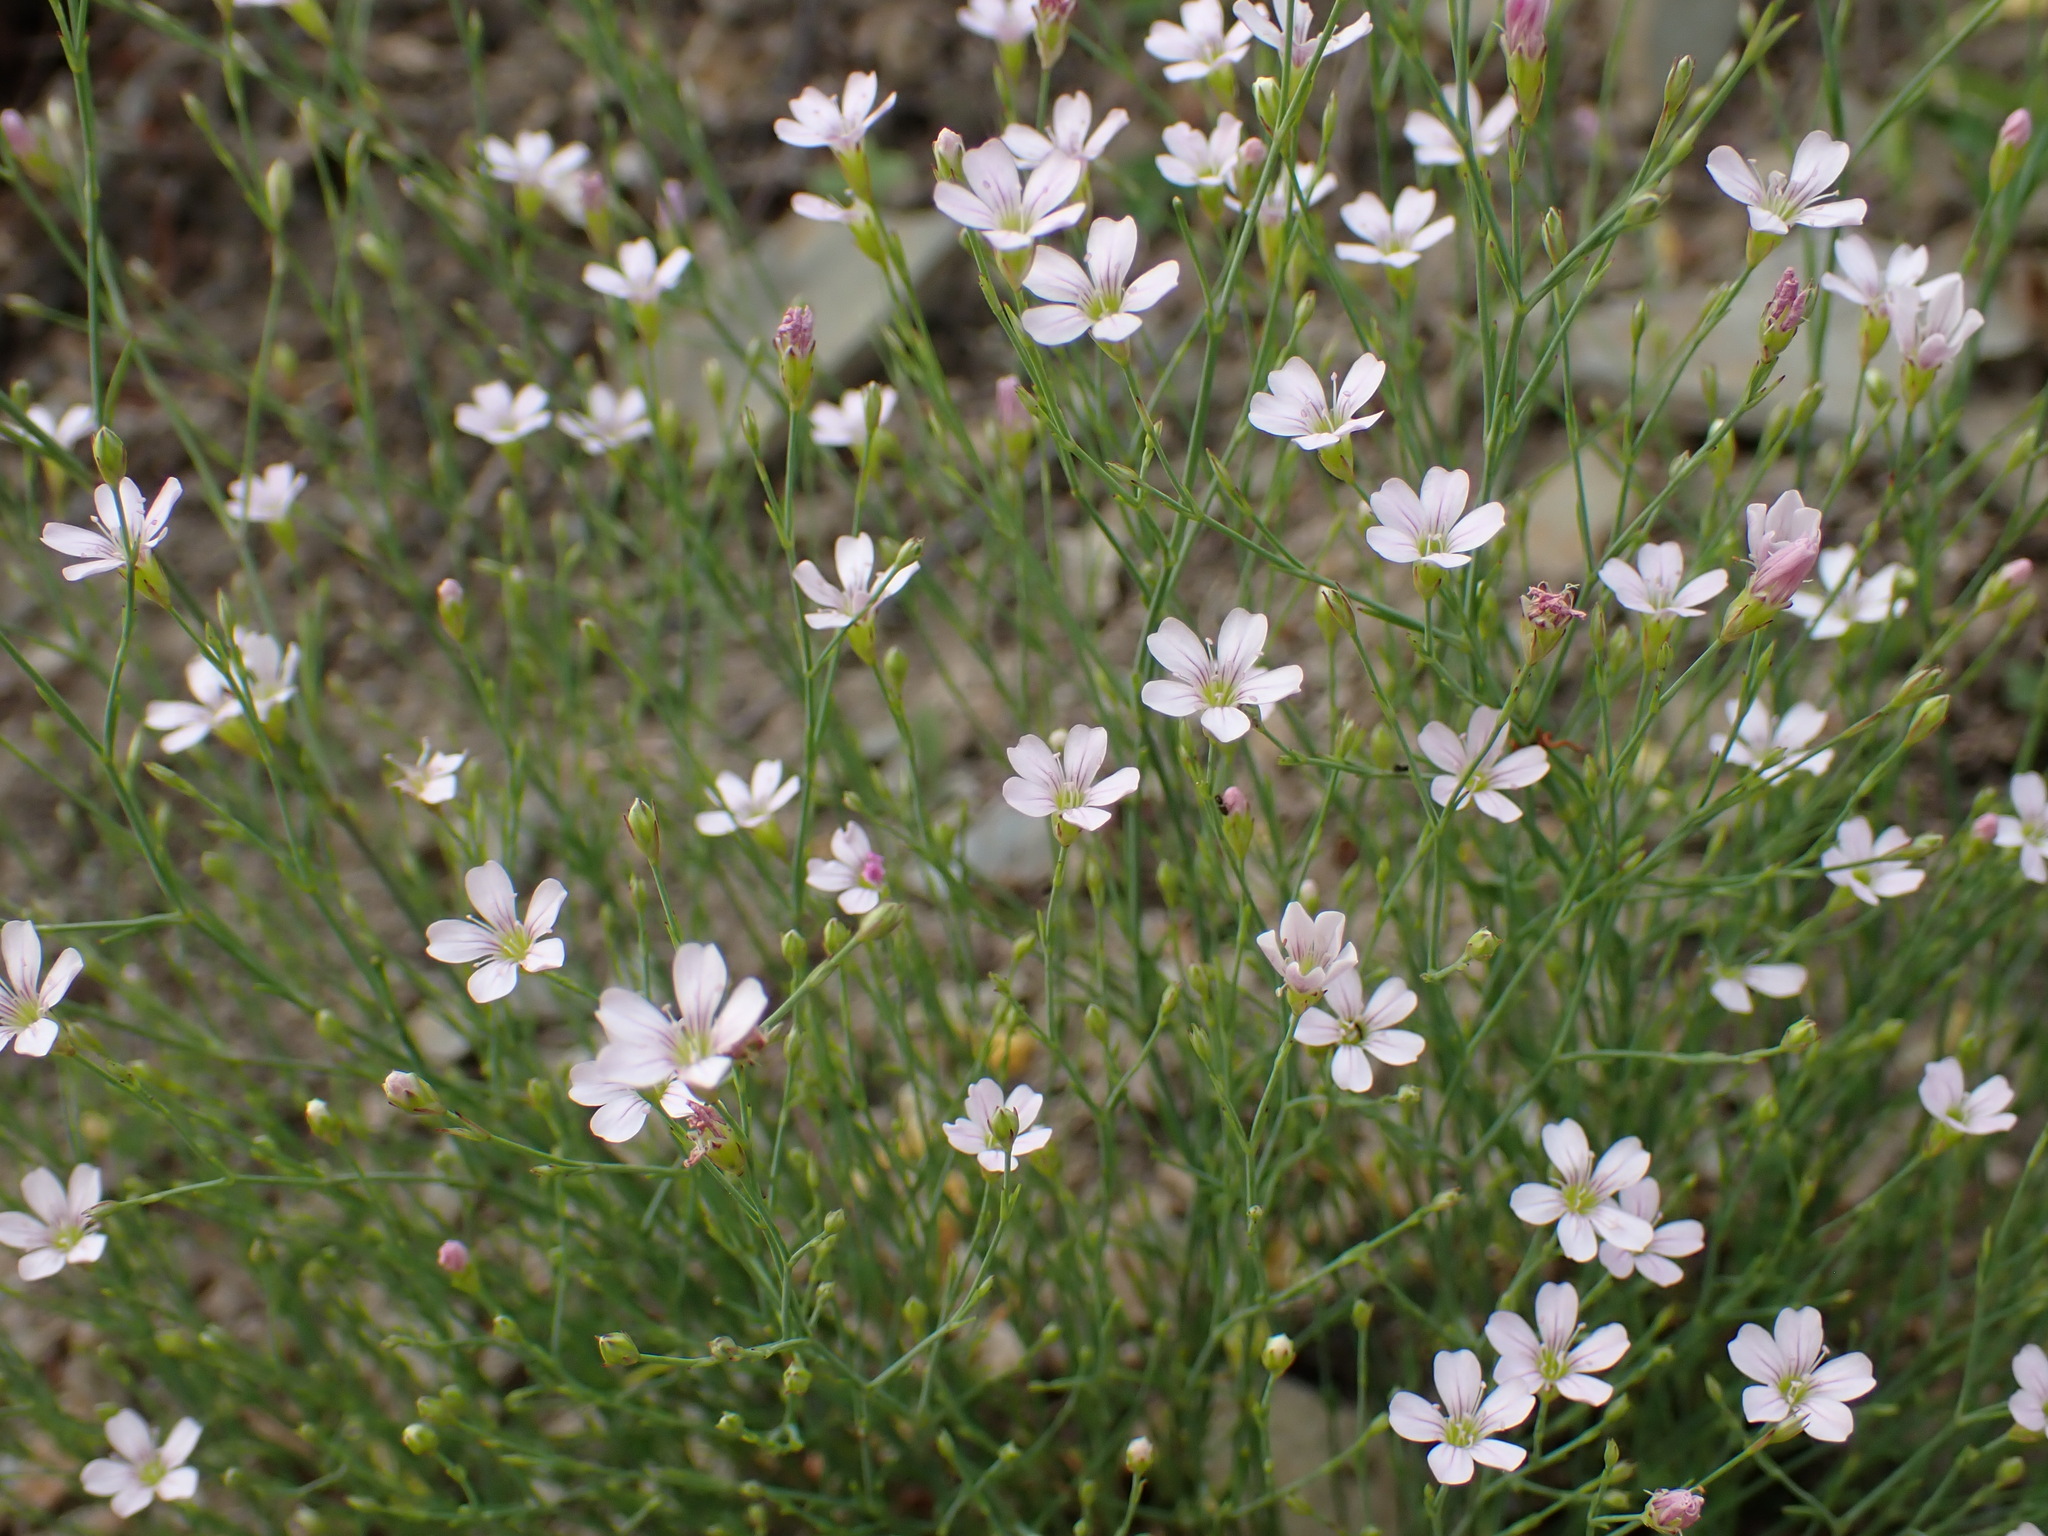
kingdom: Plantae
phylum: Tracheophyta
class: Magnoliopsida
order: Caryophyllales
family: Caryophyllaceae
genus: Petrorhagia
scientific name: Petrorhagia saxifraga
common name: Tunicflower
